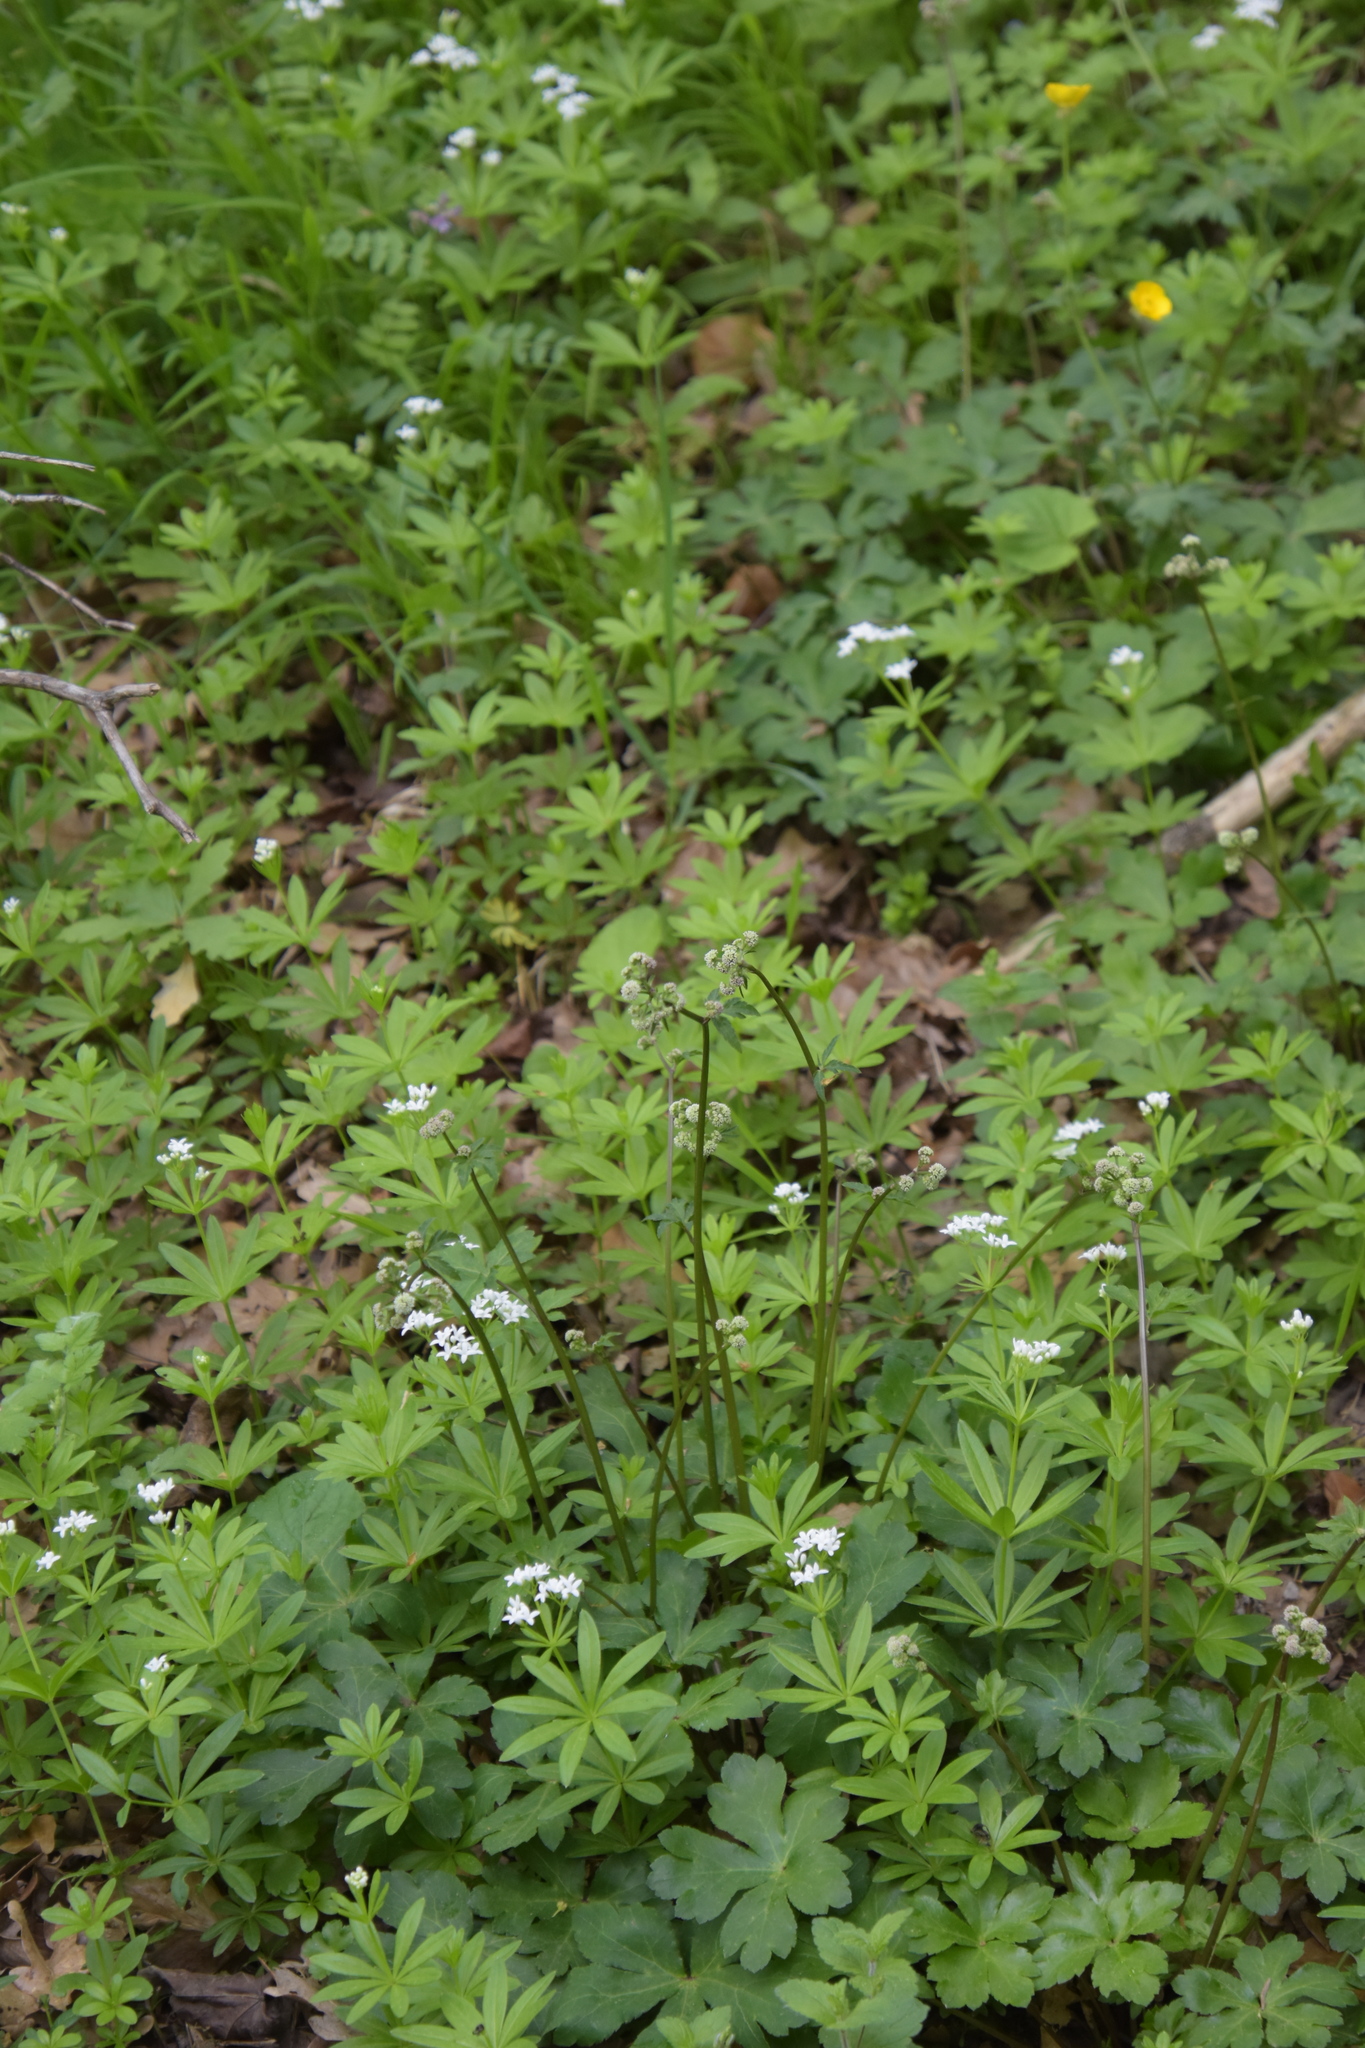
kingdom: Plantae
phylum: Tracheophyta
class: Magnoliopsida
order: Gentianales
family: Rubiaceae
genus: Galium
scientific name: Galium odoratum
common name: Sweet woodruff
